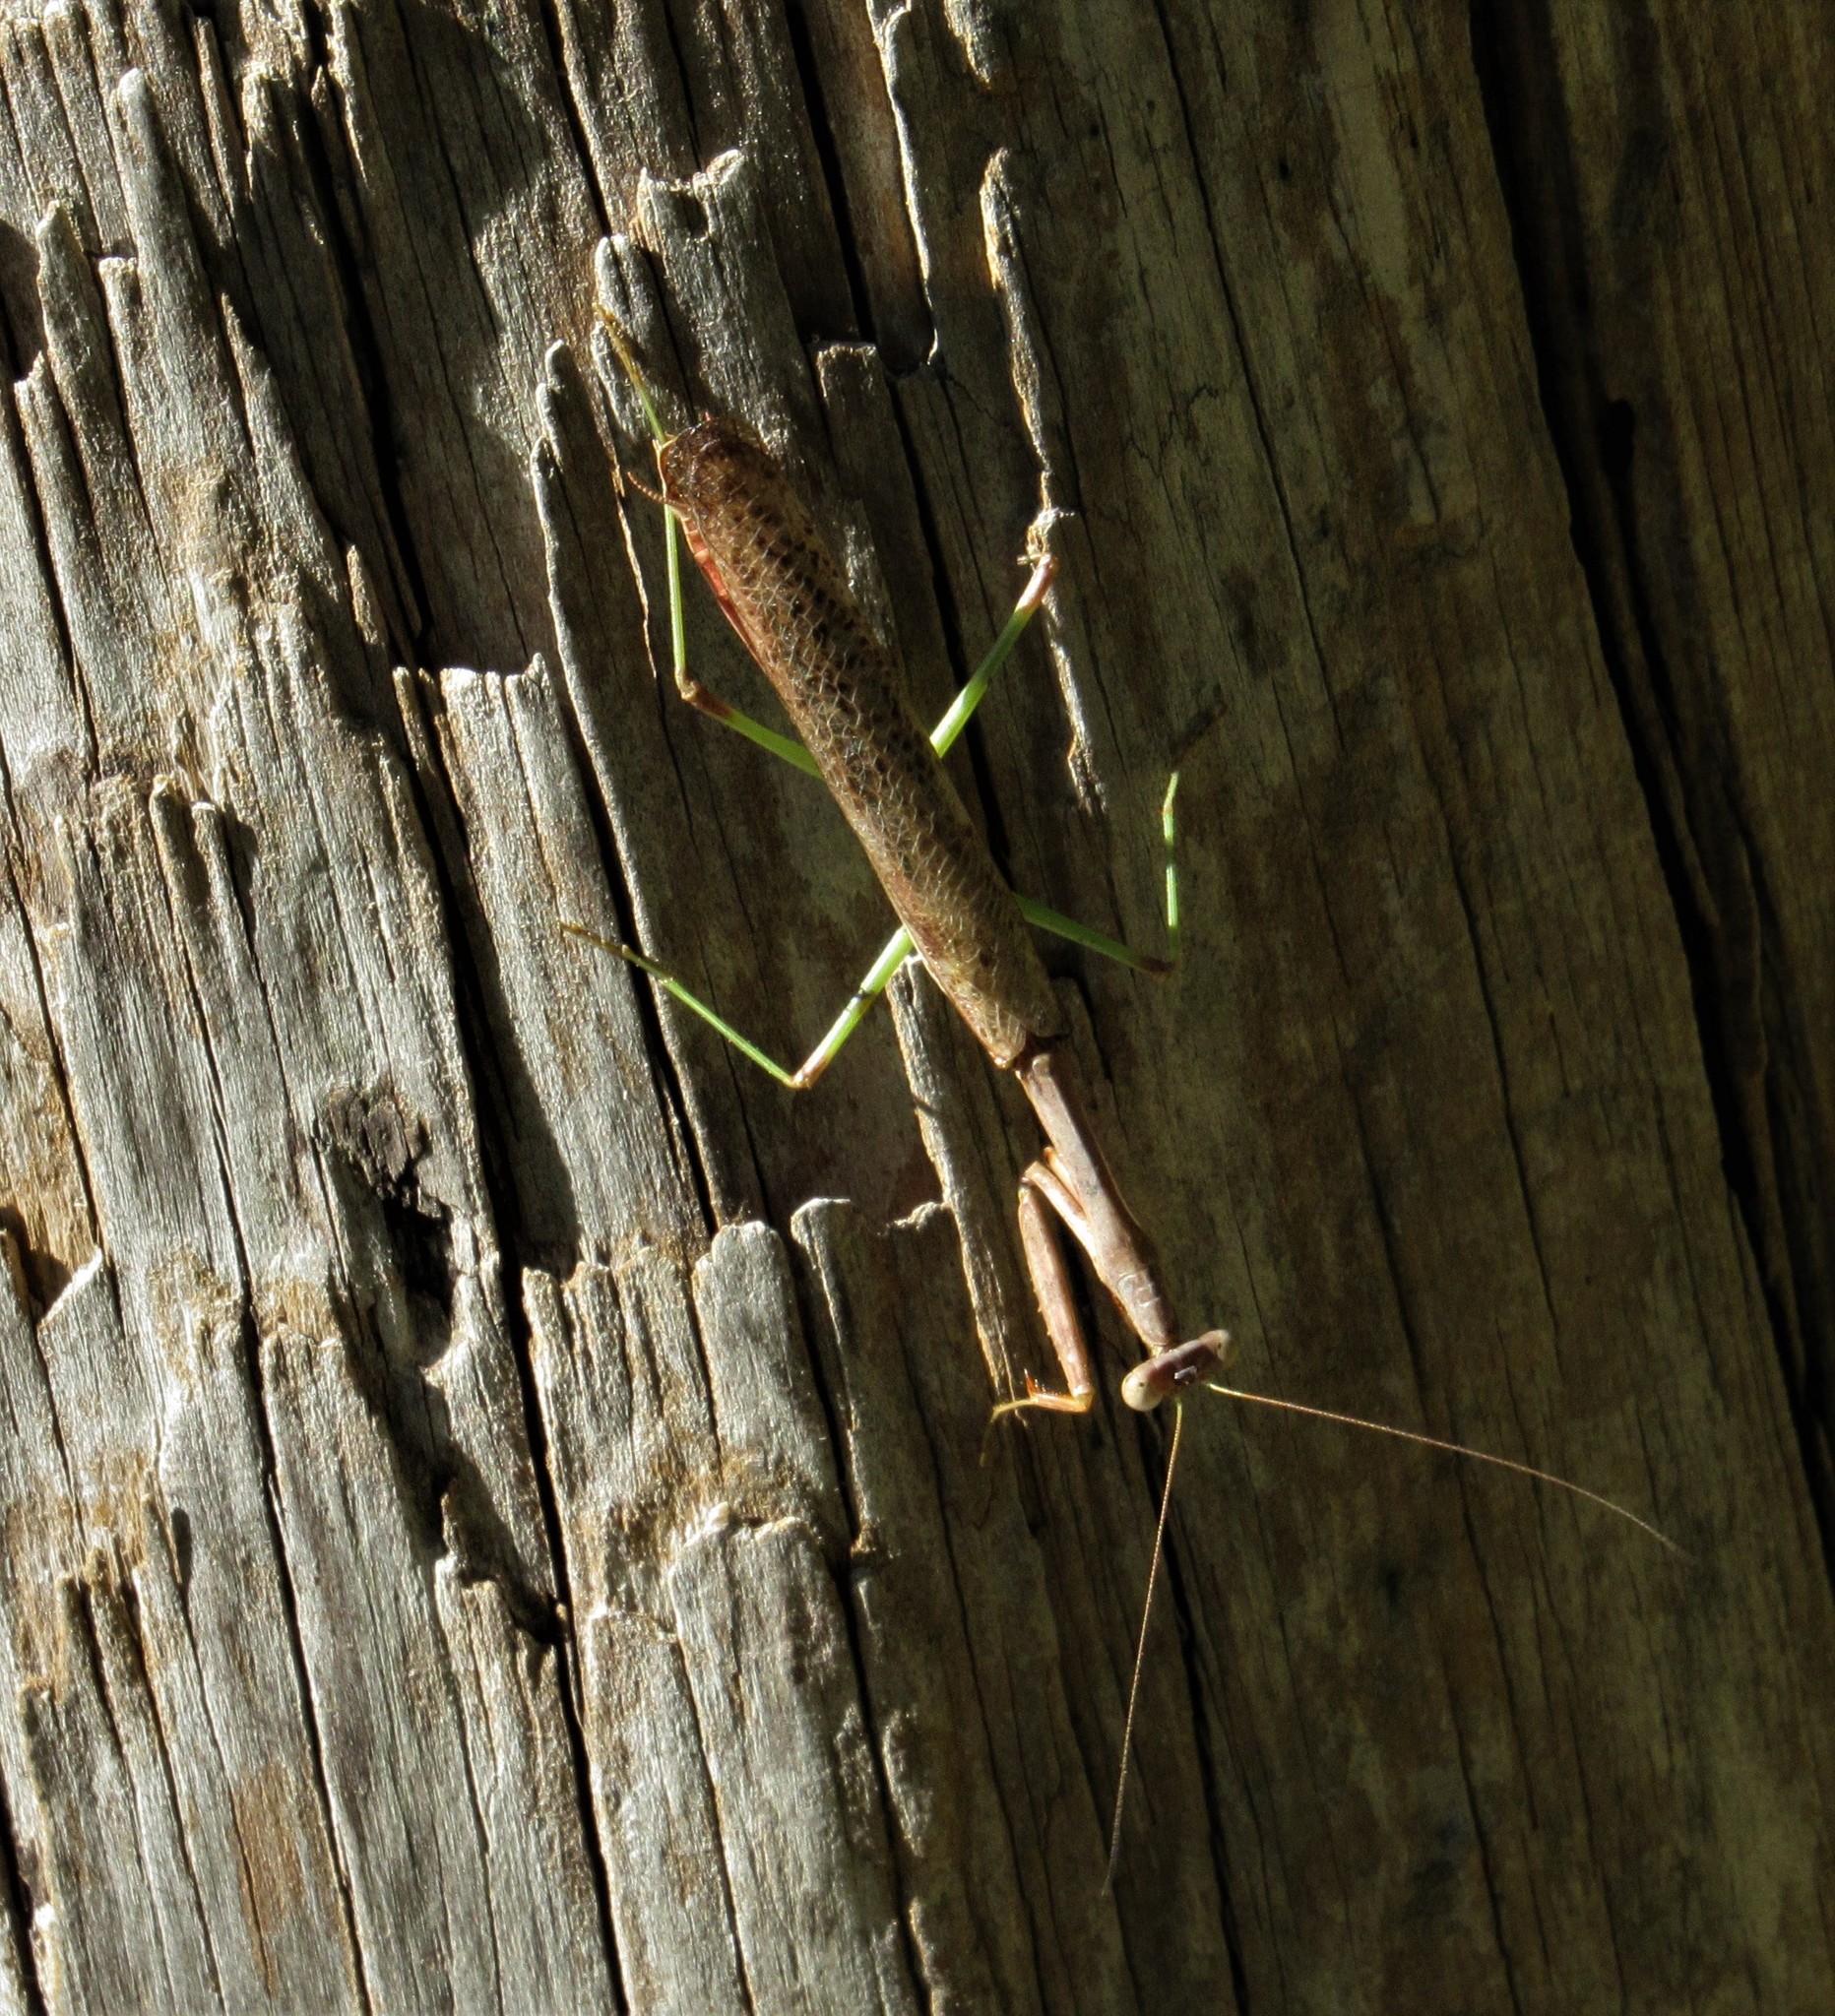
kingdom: Animalia
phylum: Arthropoda
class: Insecta
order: Mantodea
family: Mantidae
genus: Stagmomantis
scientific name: Stagmomantis carolina
